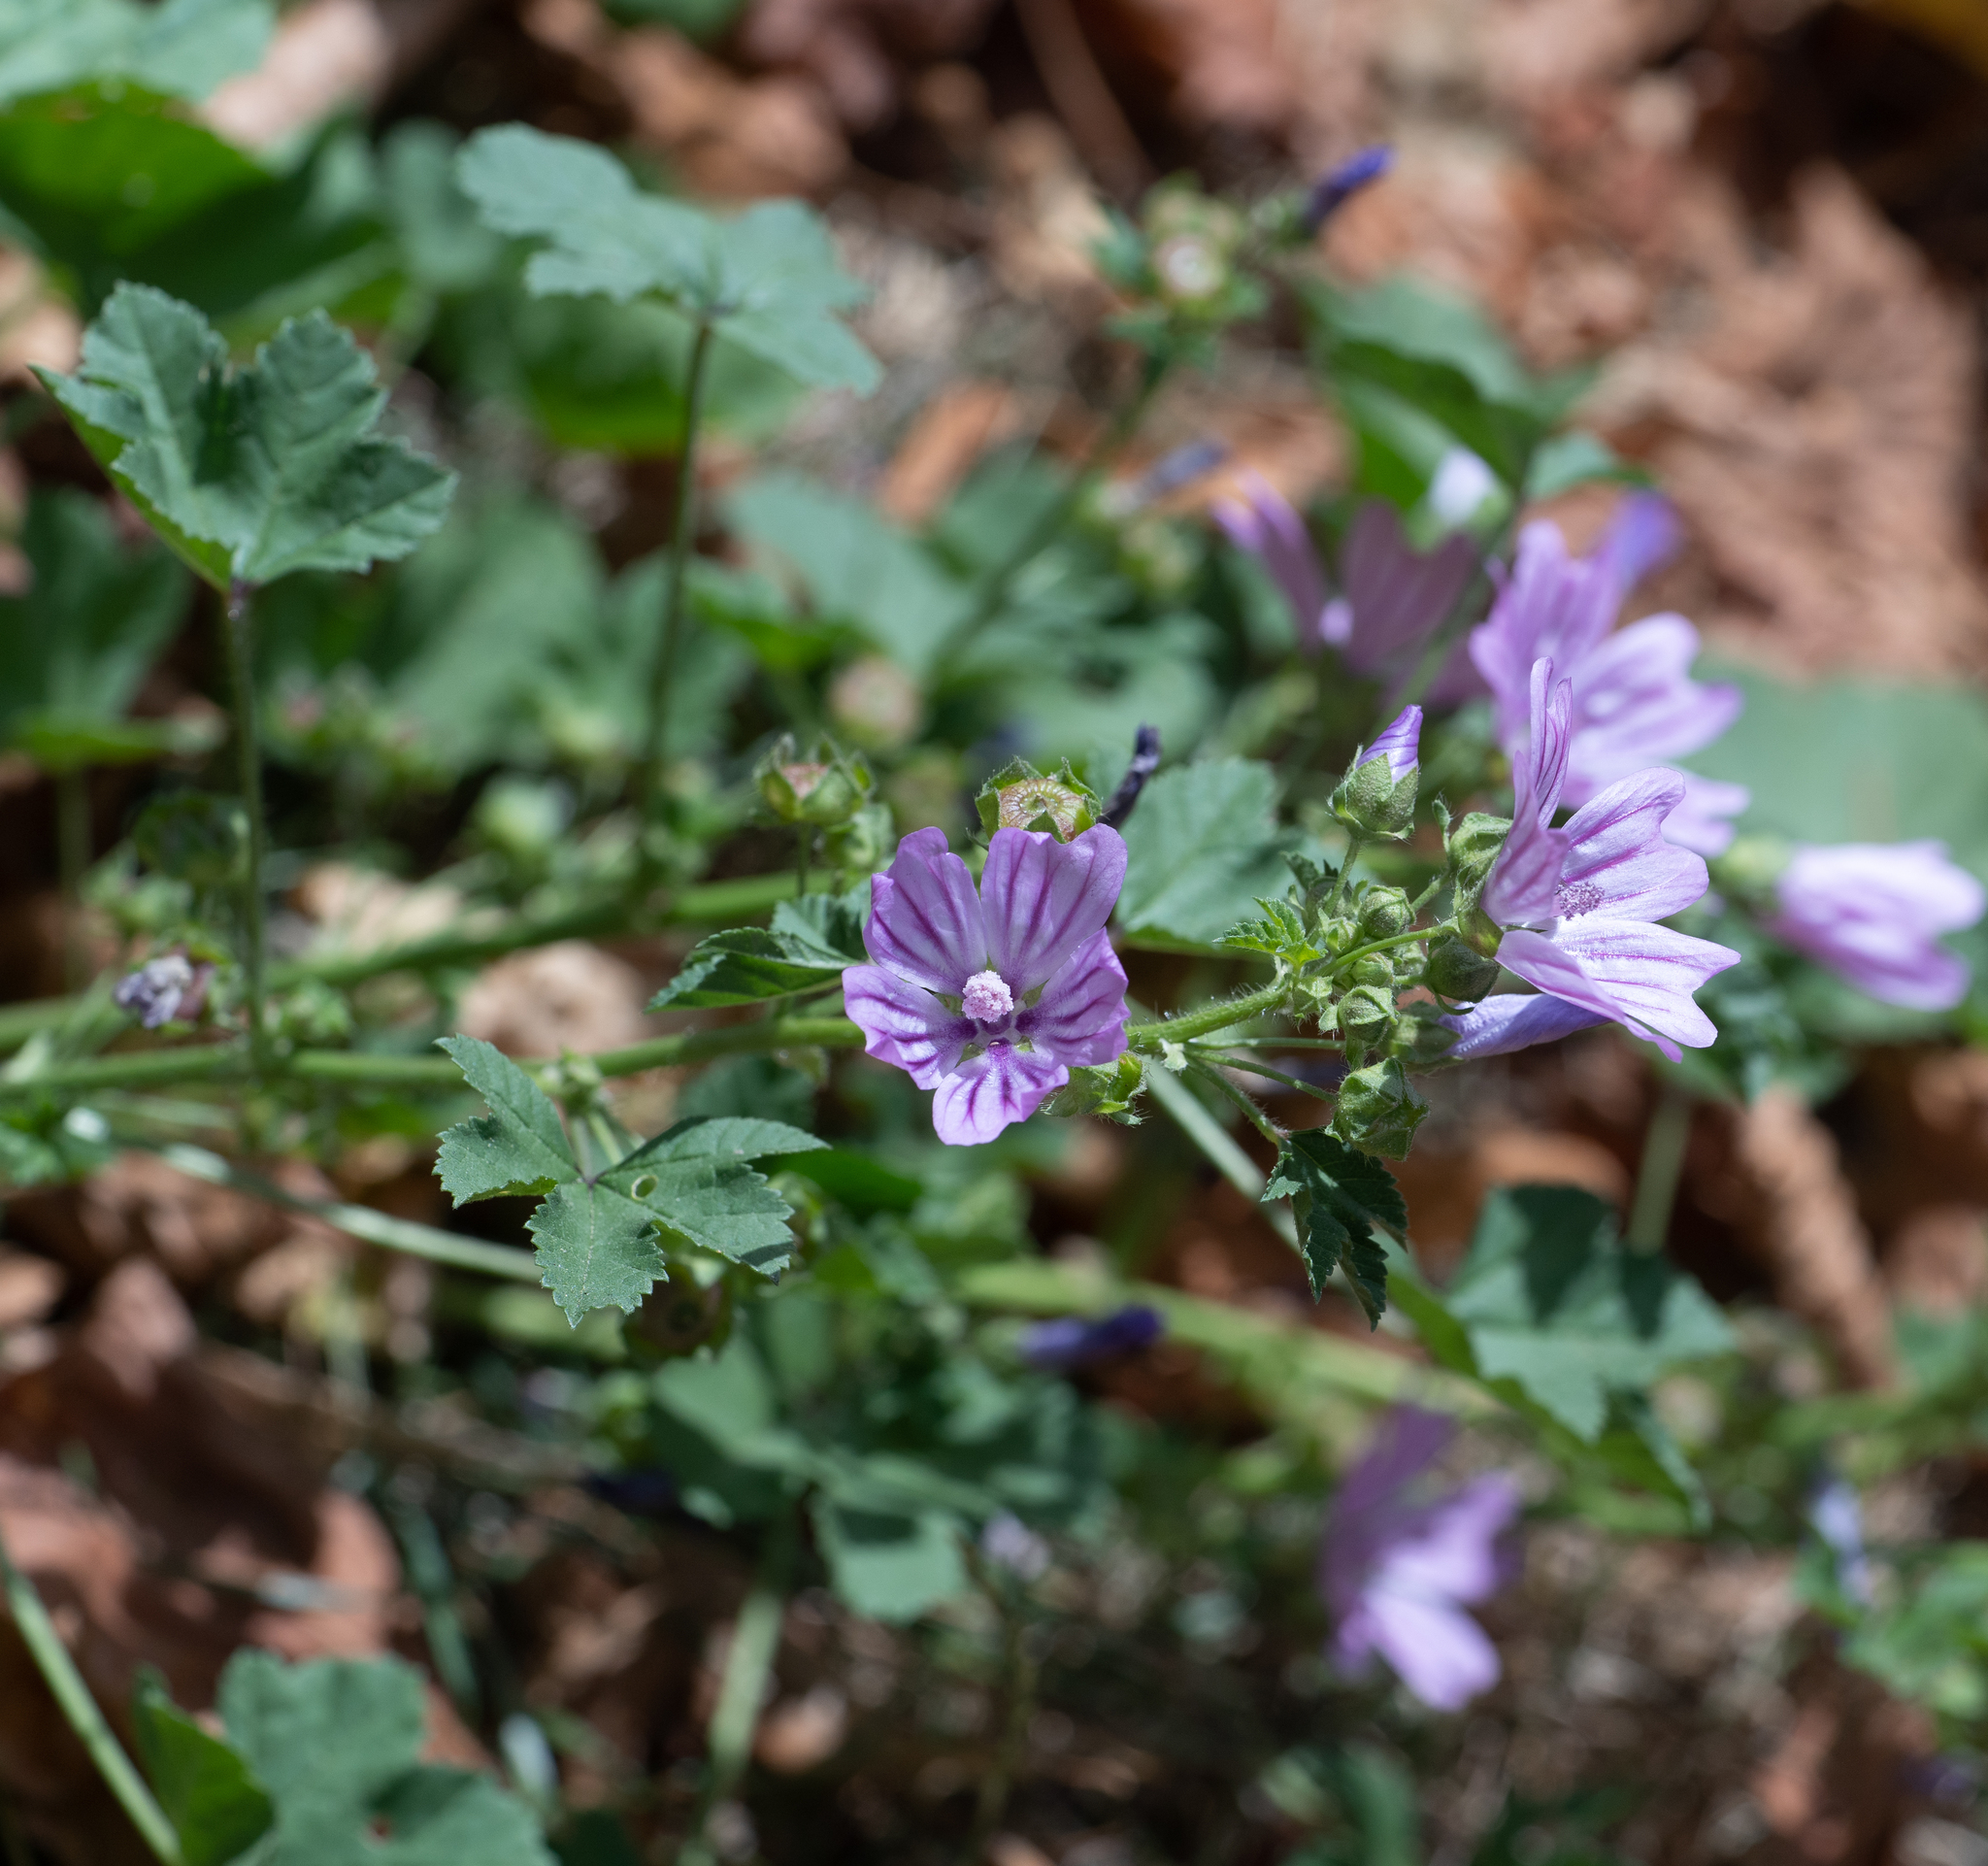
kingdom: Plantae
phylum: Tracheophyta
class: Magnoliopsida
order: Malvales
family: Malvaceae
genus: Malva
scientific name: Malva sylvestris
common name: Common mallow
